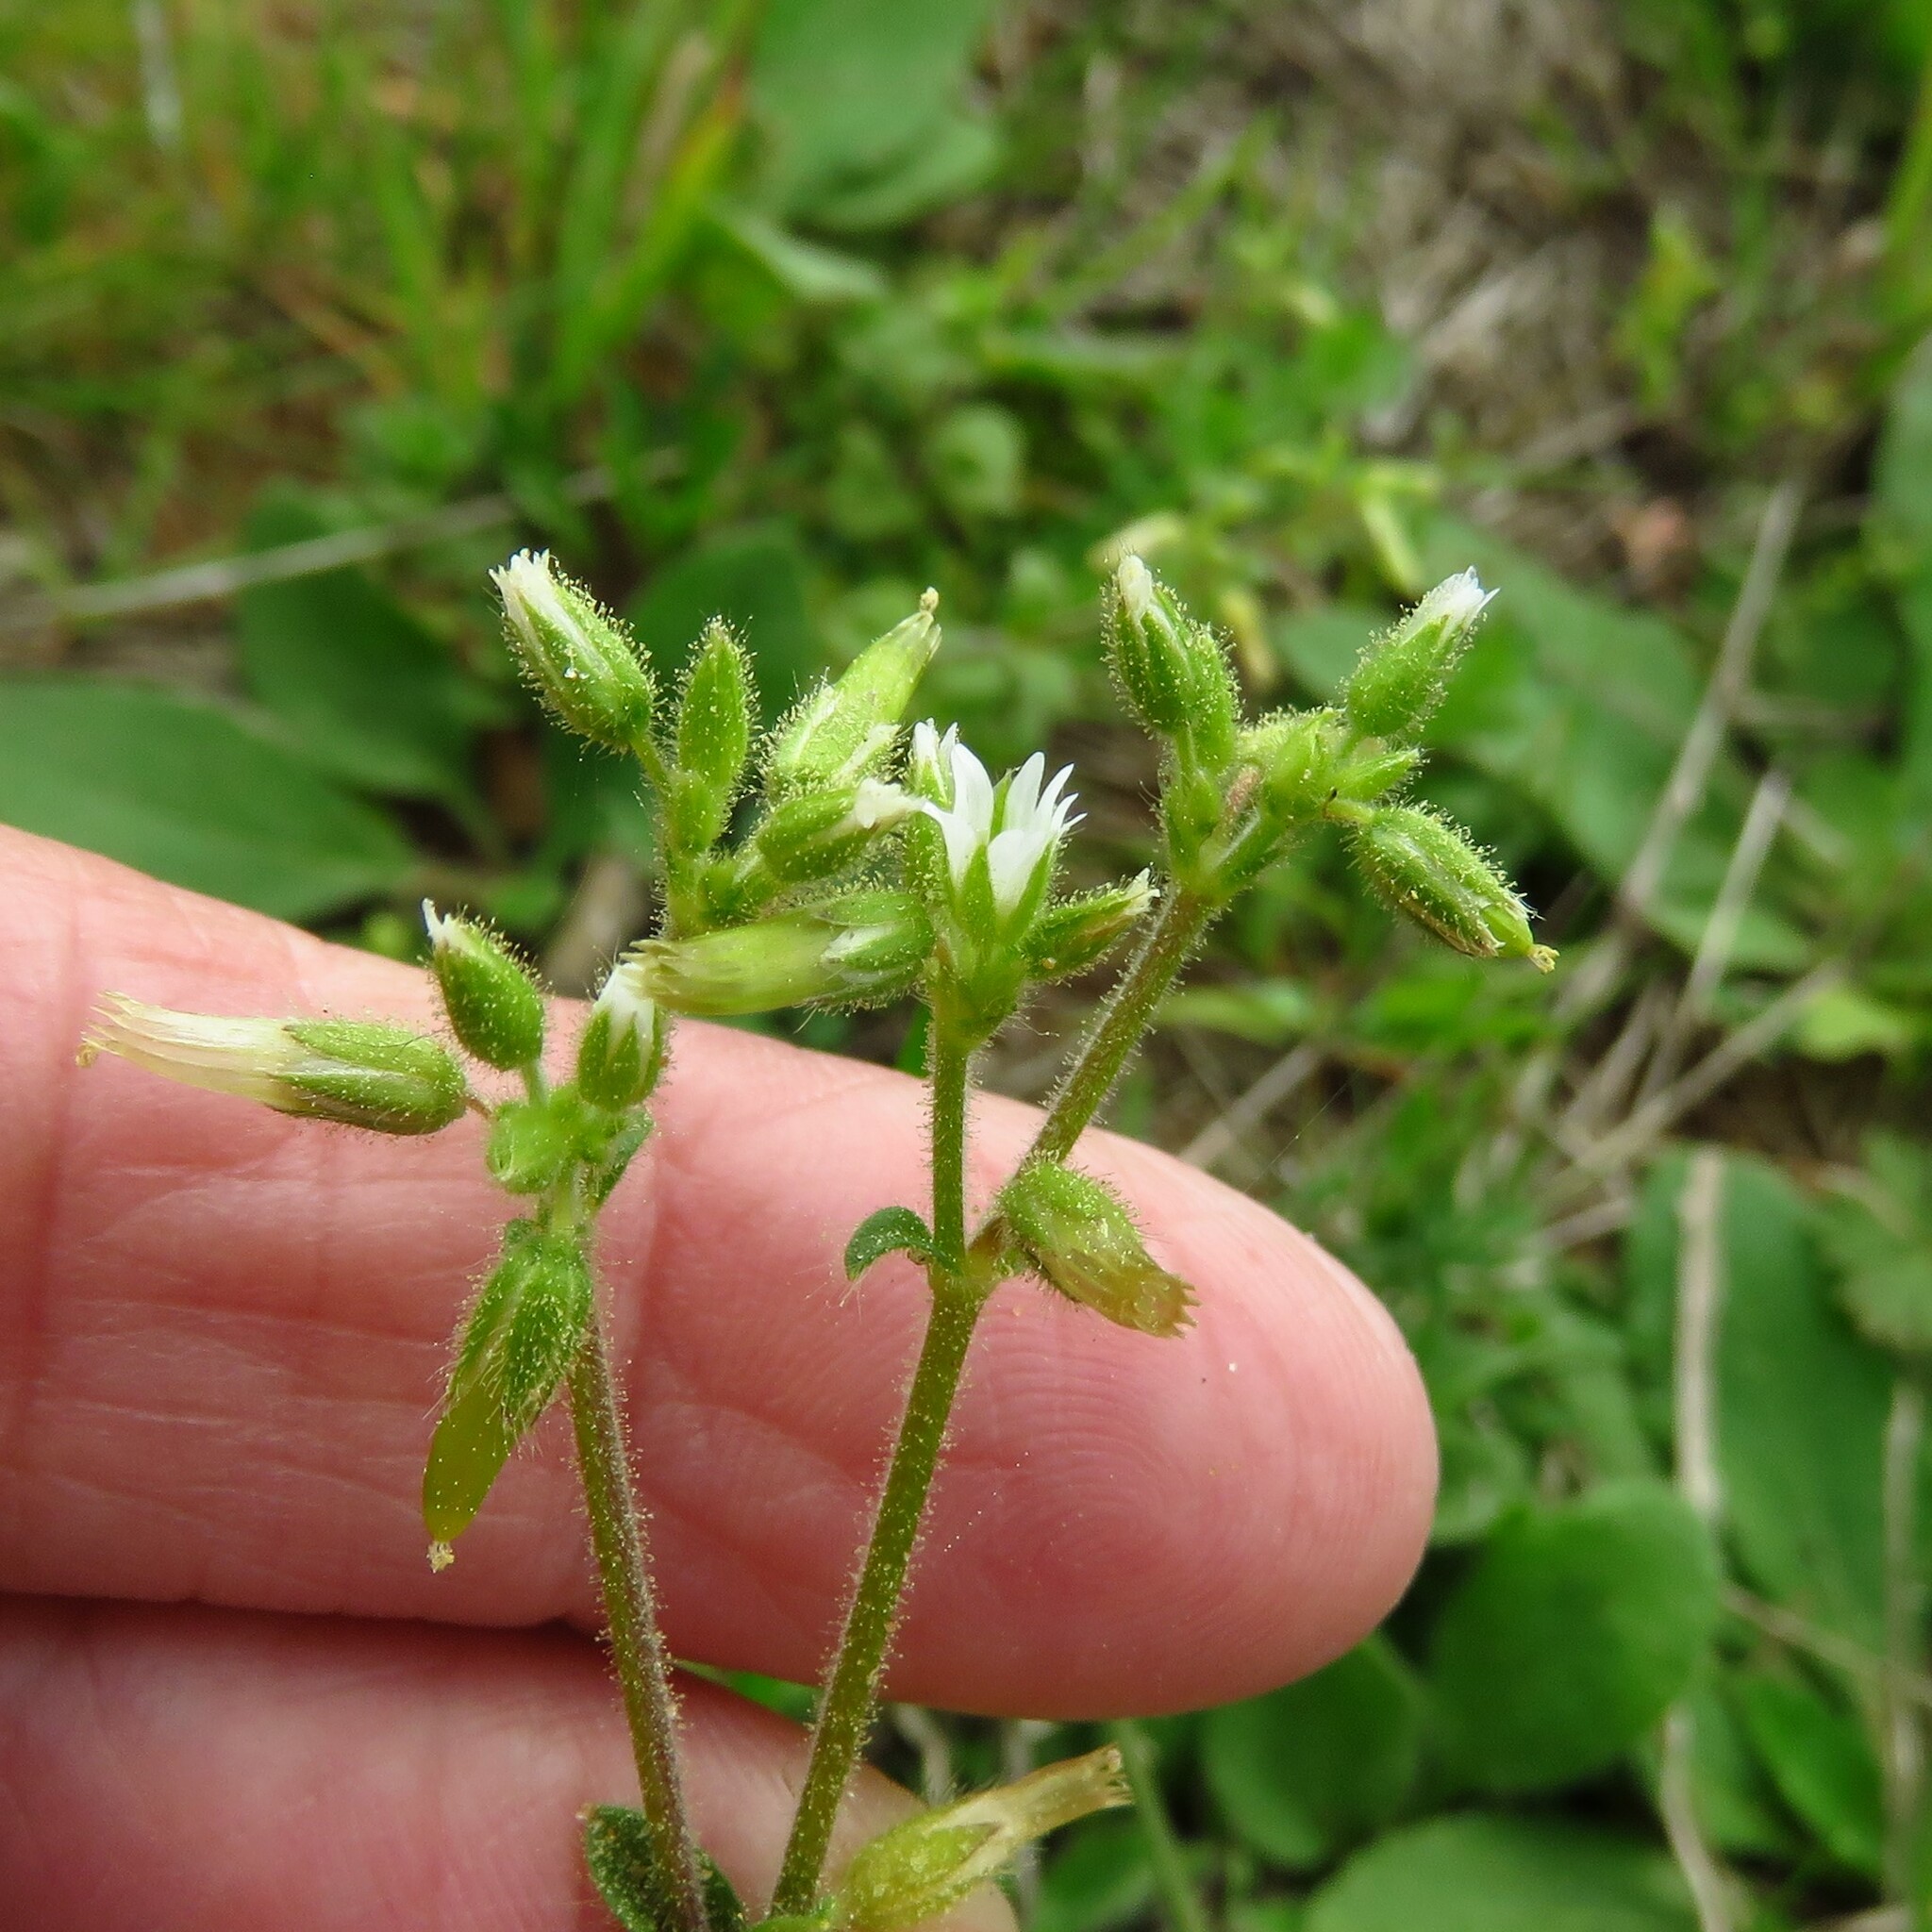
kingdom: Plantae
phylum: Tracheophyta
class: Magnoliopsida
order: Caryophyllales
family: Caryophyllaceae
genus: Cerastium
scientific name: Cerastium glomeratum
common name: Sticky chickweed
